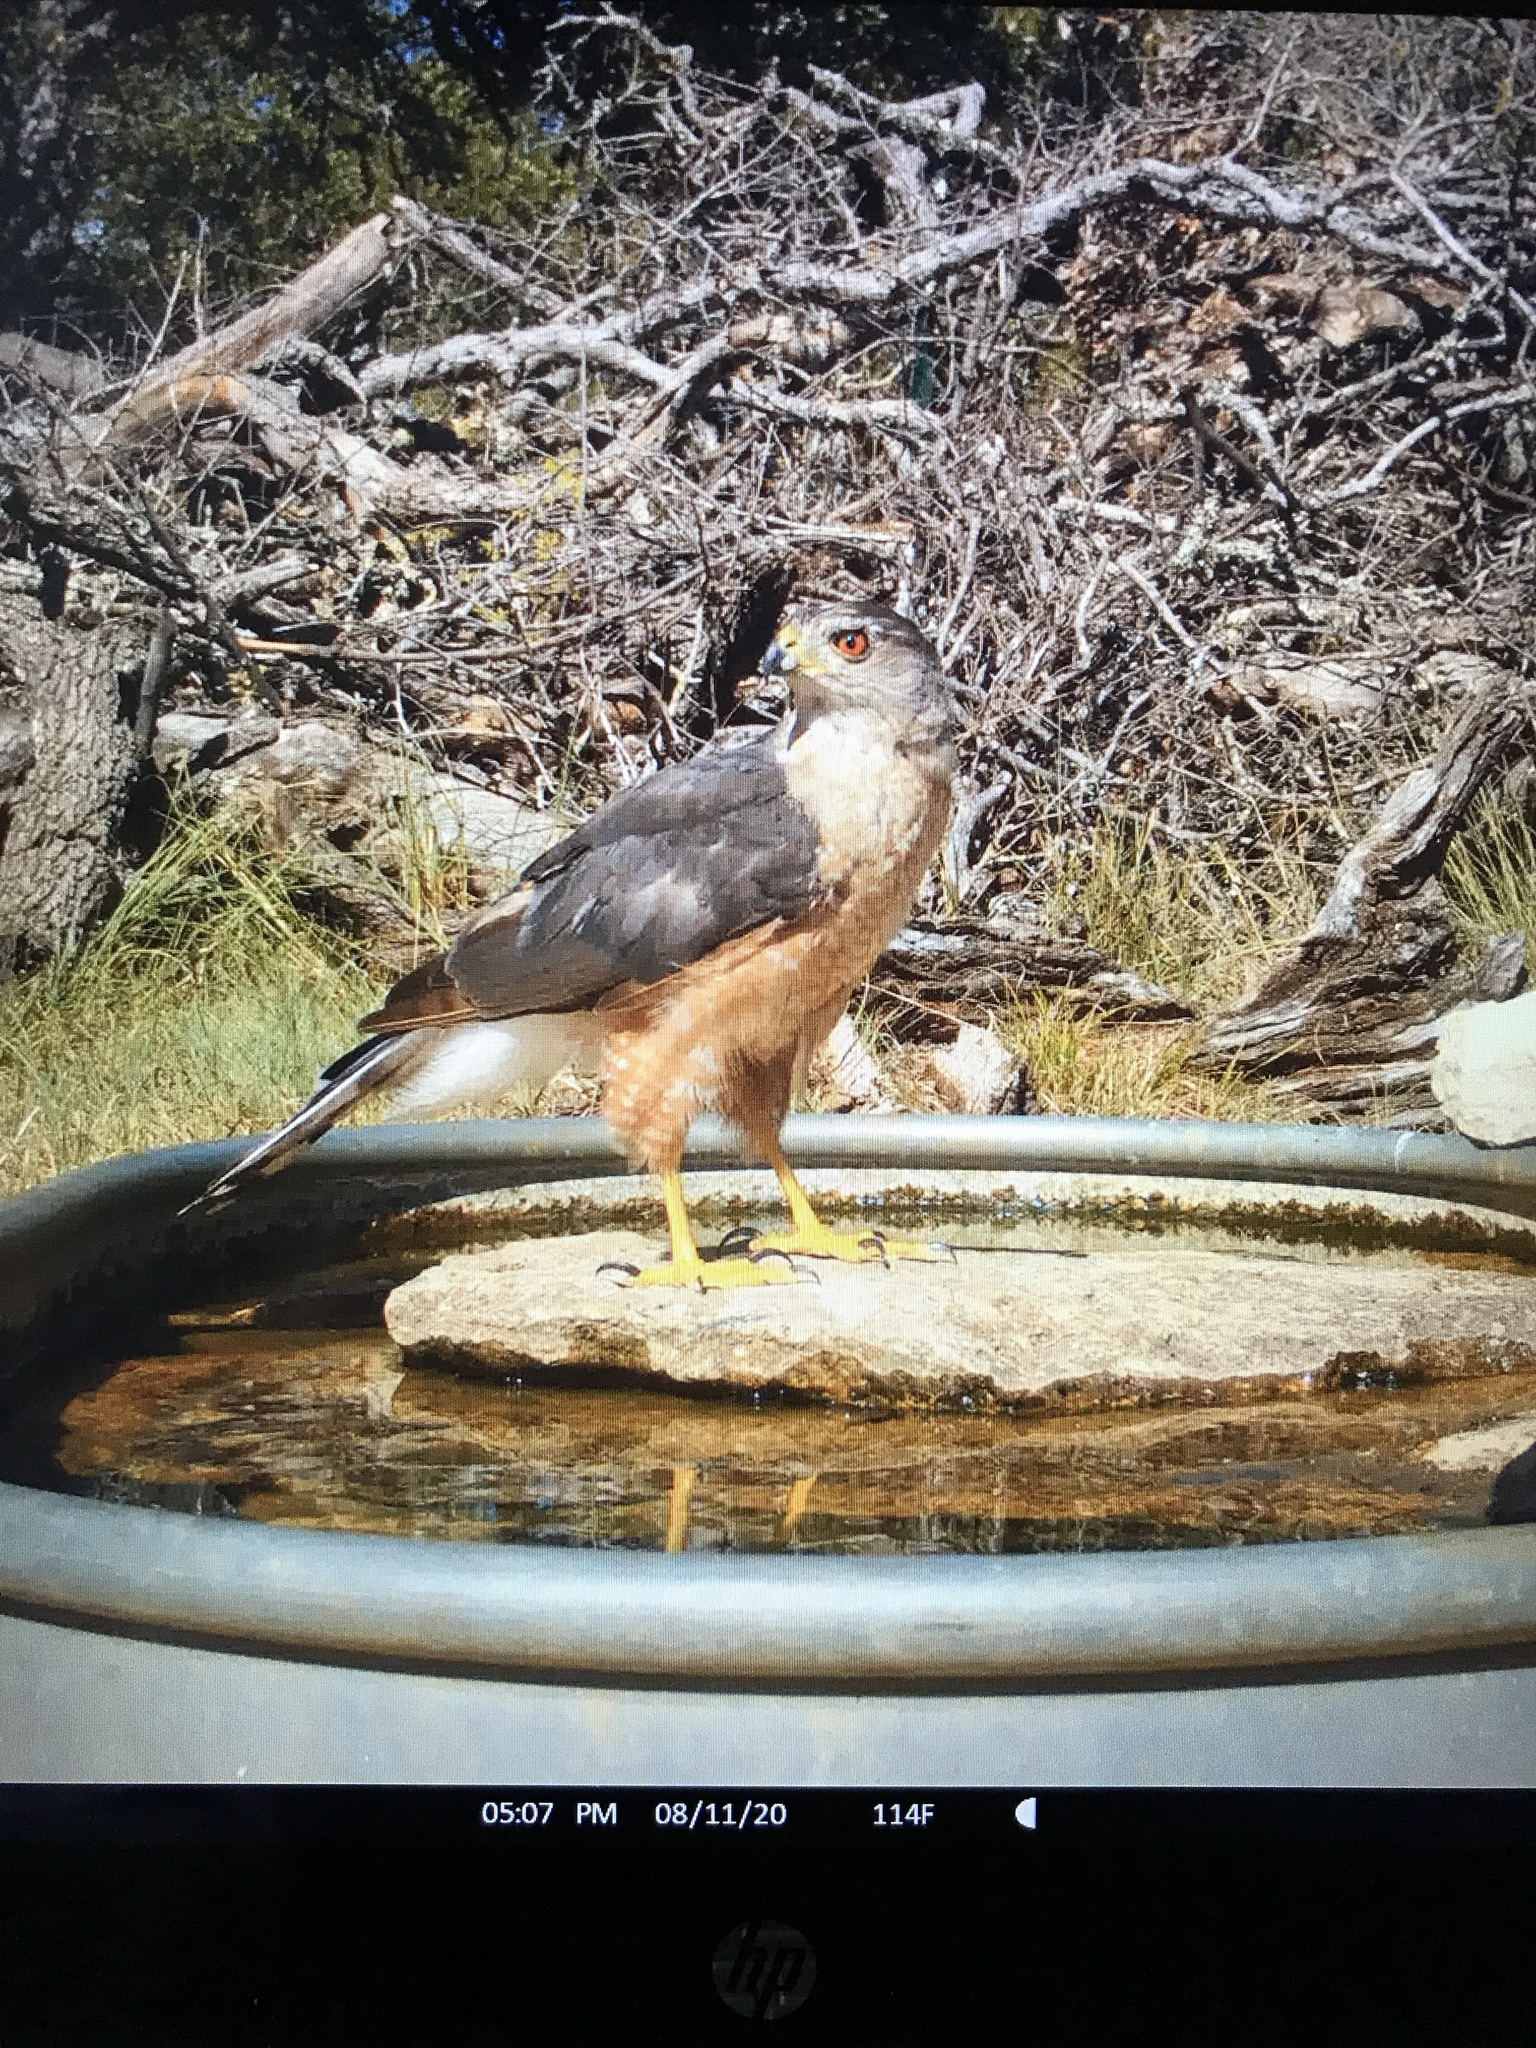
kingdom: Animalia
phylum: Chordata
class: Aves
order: Accipitriformes
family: Accipitridae
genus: Accipiter
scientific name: Accipiter cooperii
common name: Cooper's hawk
